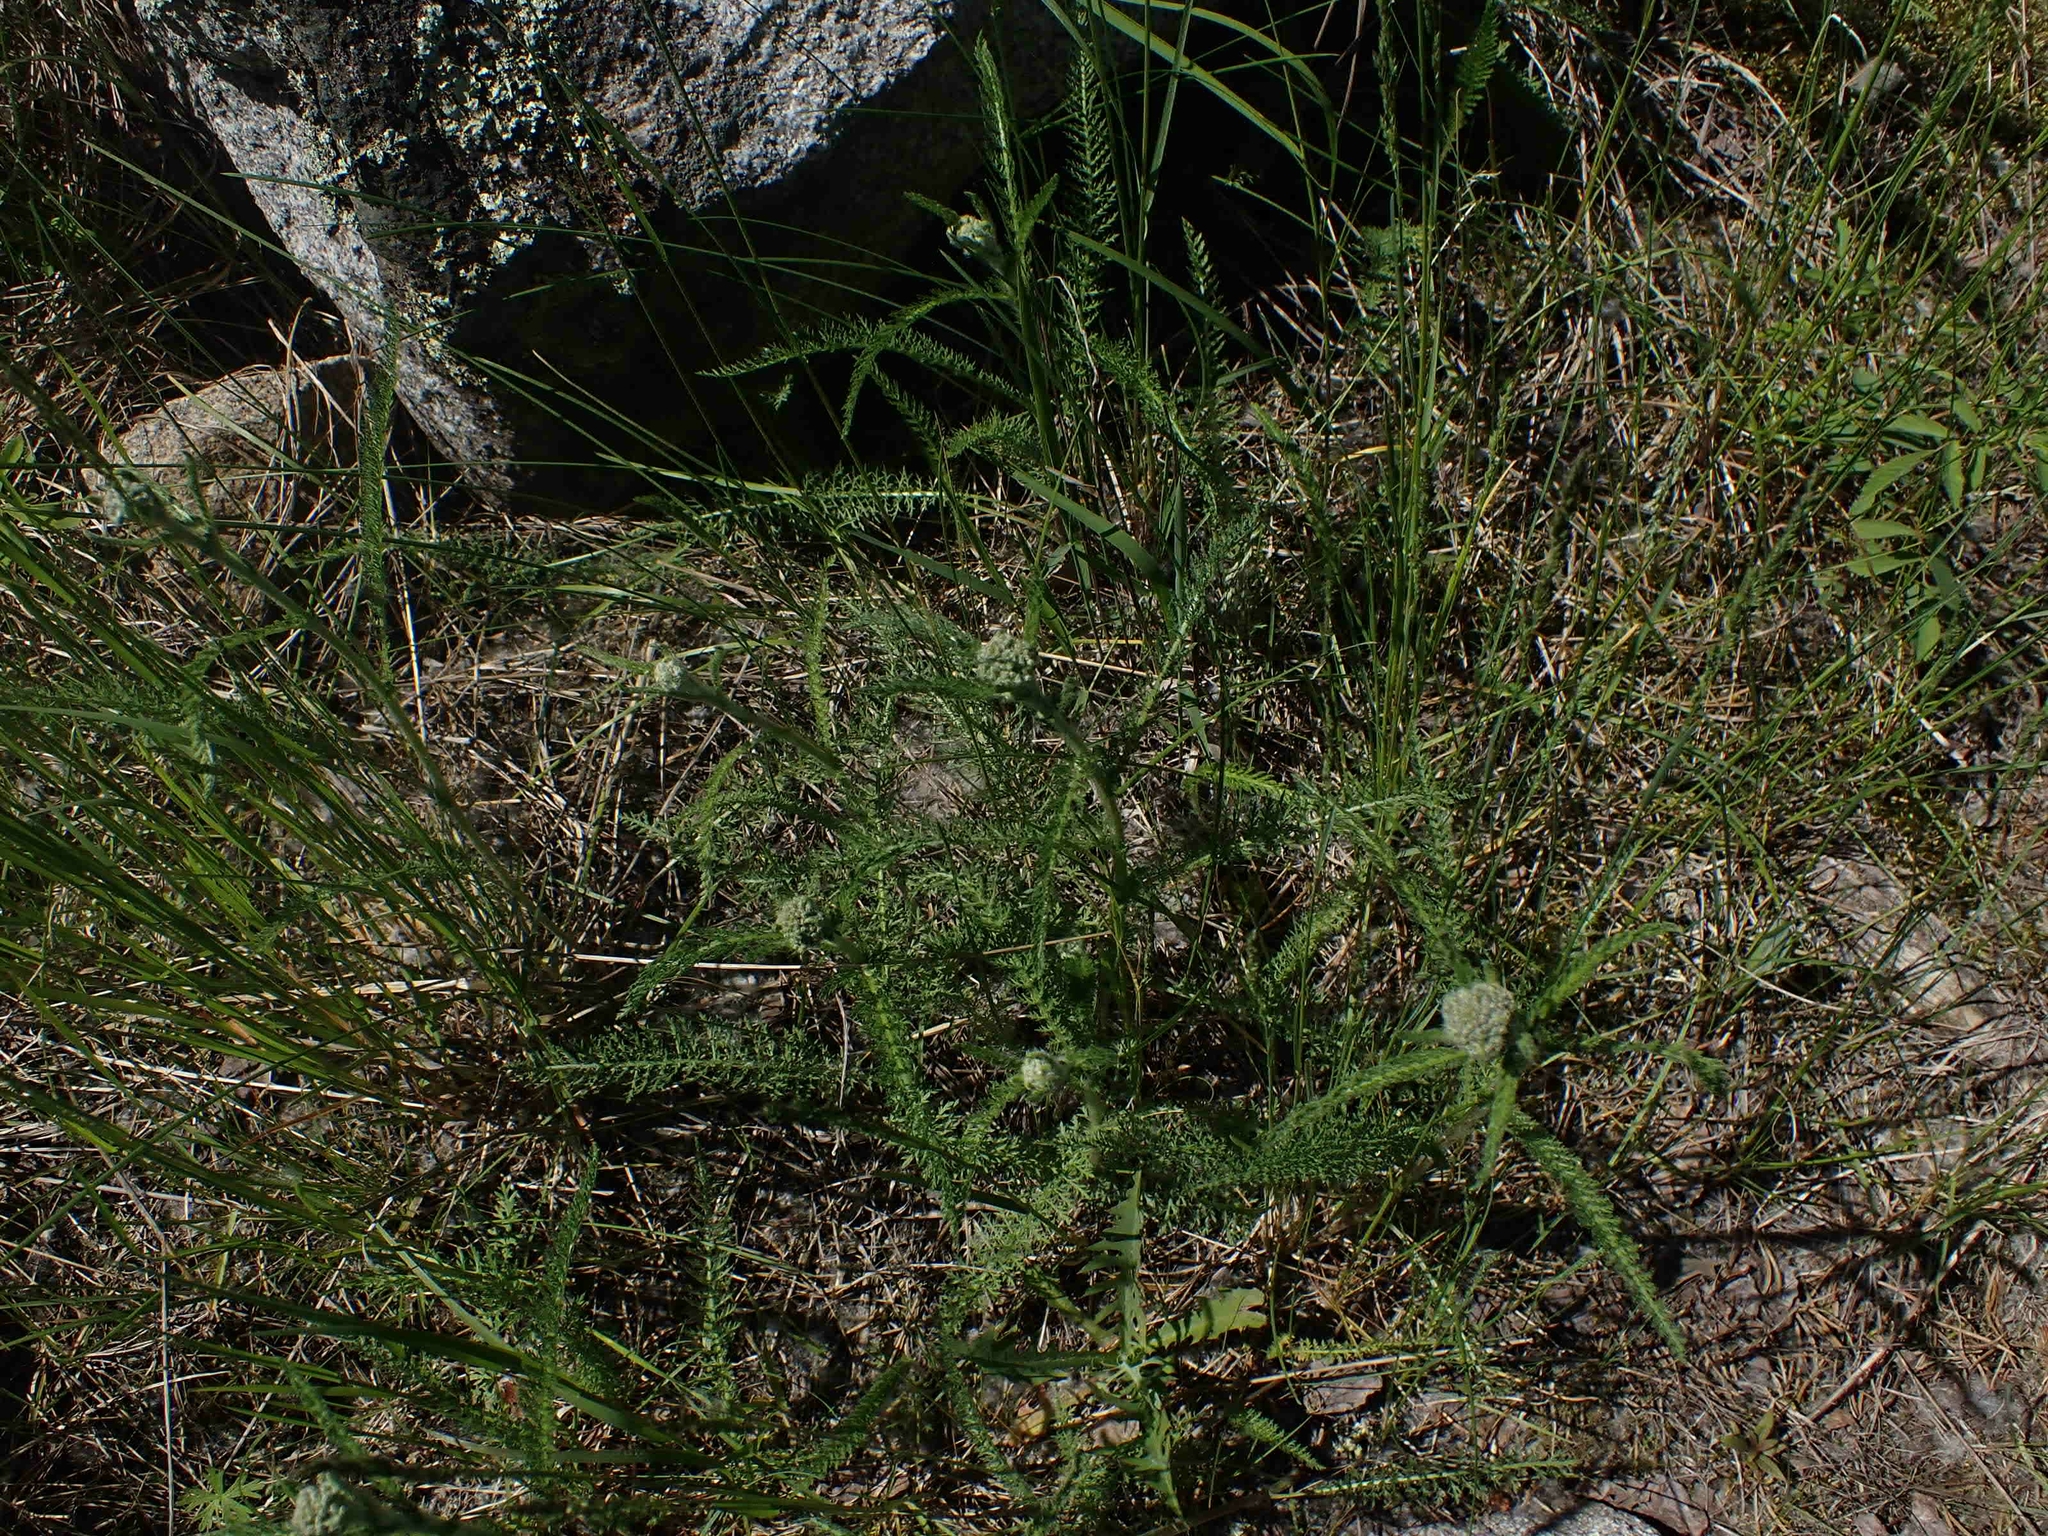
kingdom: Plantae
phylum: Tracheophyta
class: Magnoliopsida
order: Asterales
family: Asteraceae
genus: Achillea
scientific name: Achillea millefolium
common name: Yarrow
